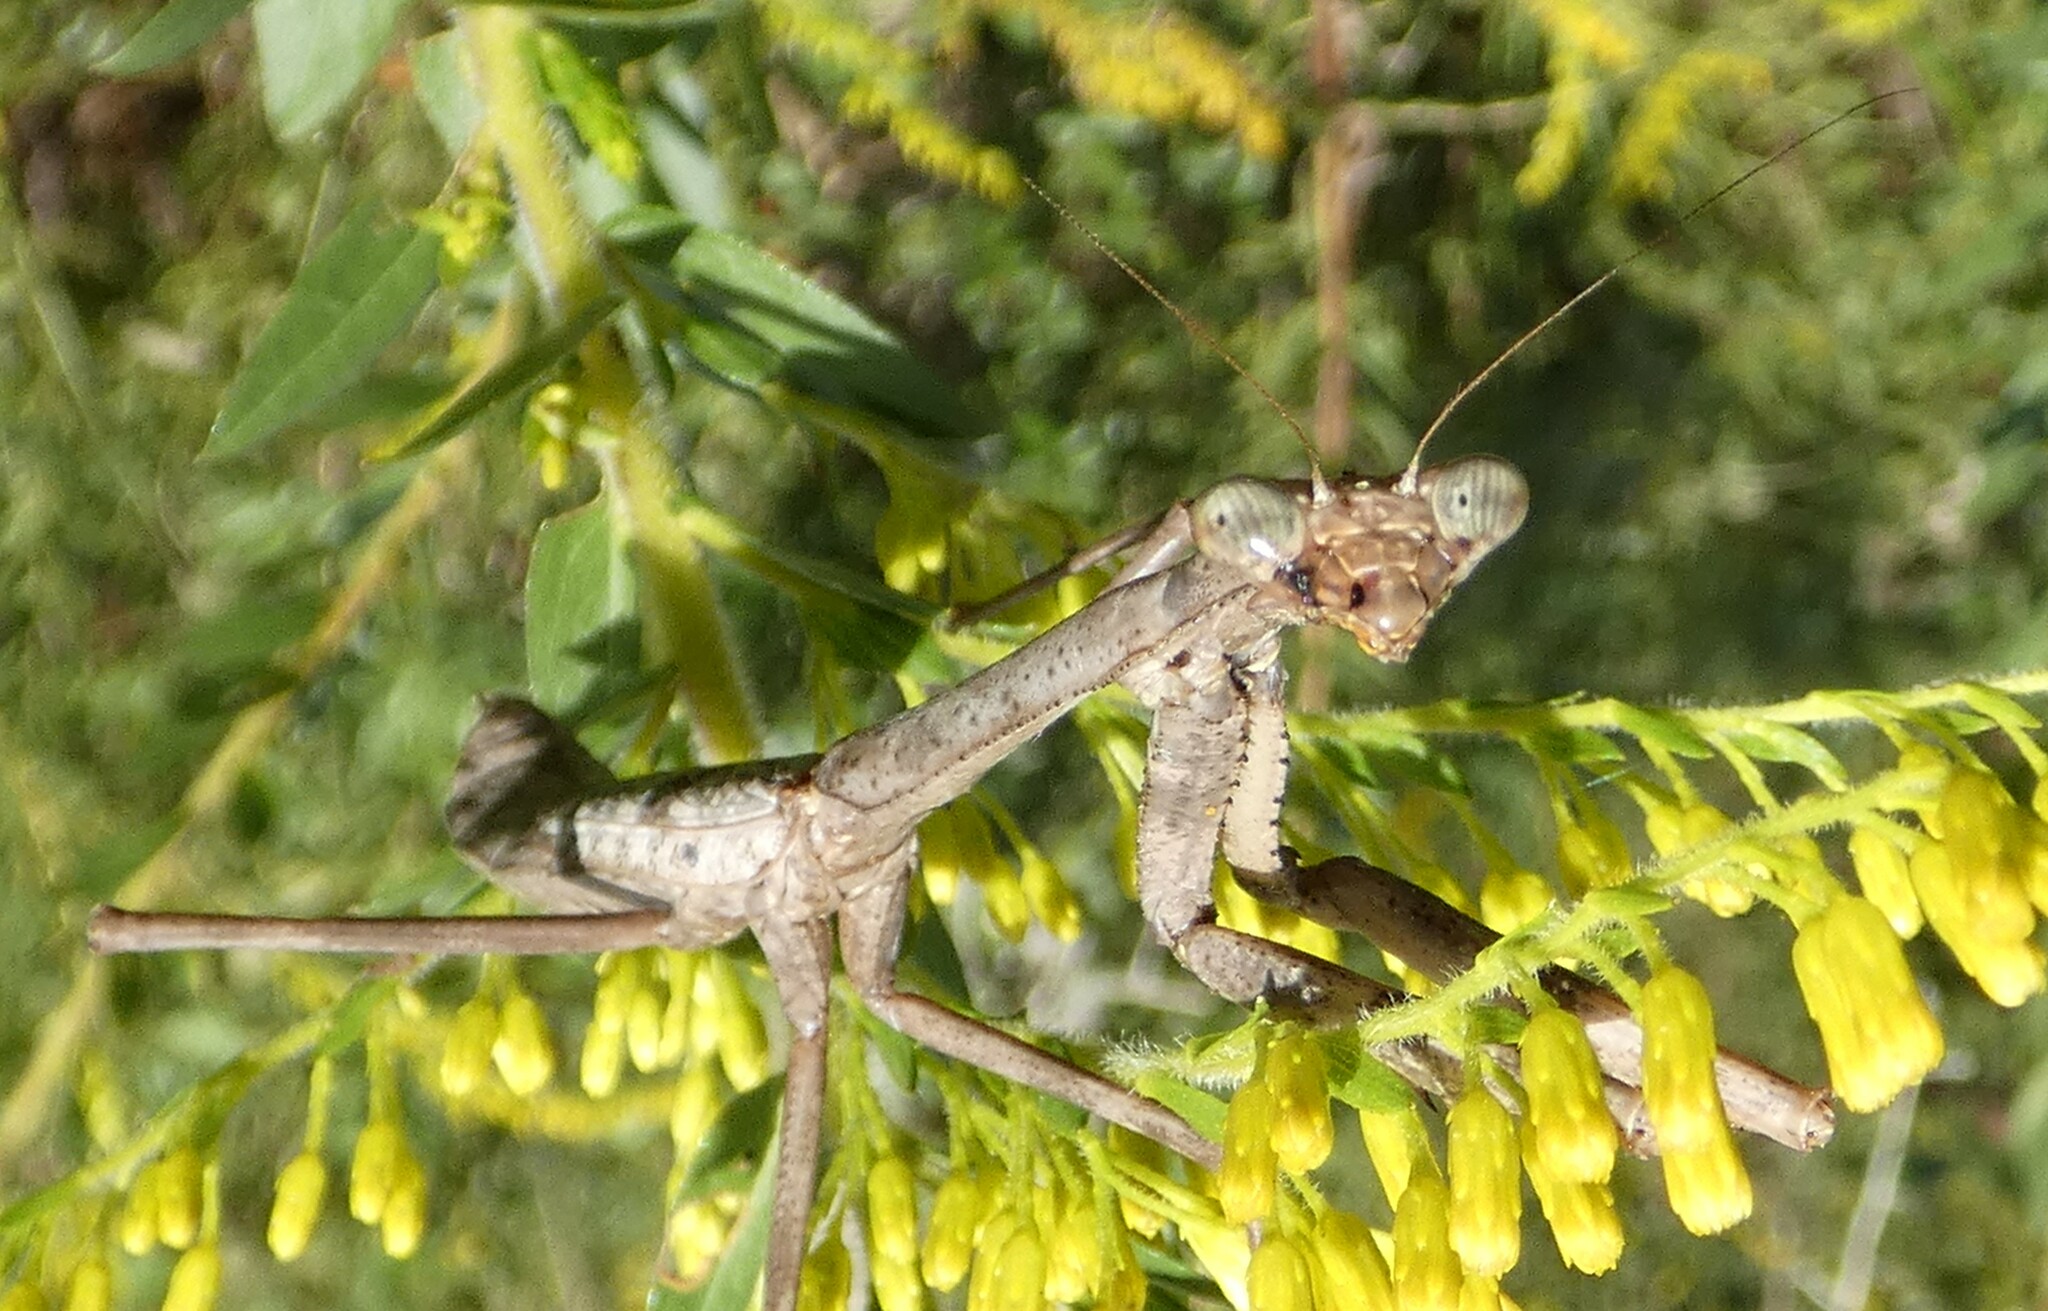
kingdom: Animalia
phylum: Arthropoda
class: Insecta
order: Mantodea
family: Mantidae
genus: Stagmomantis
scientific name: Stagmomantis carolina
